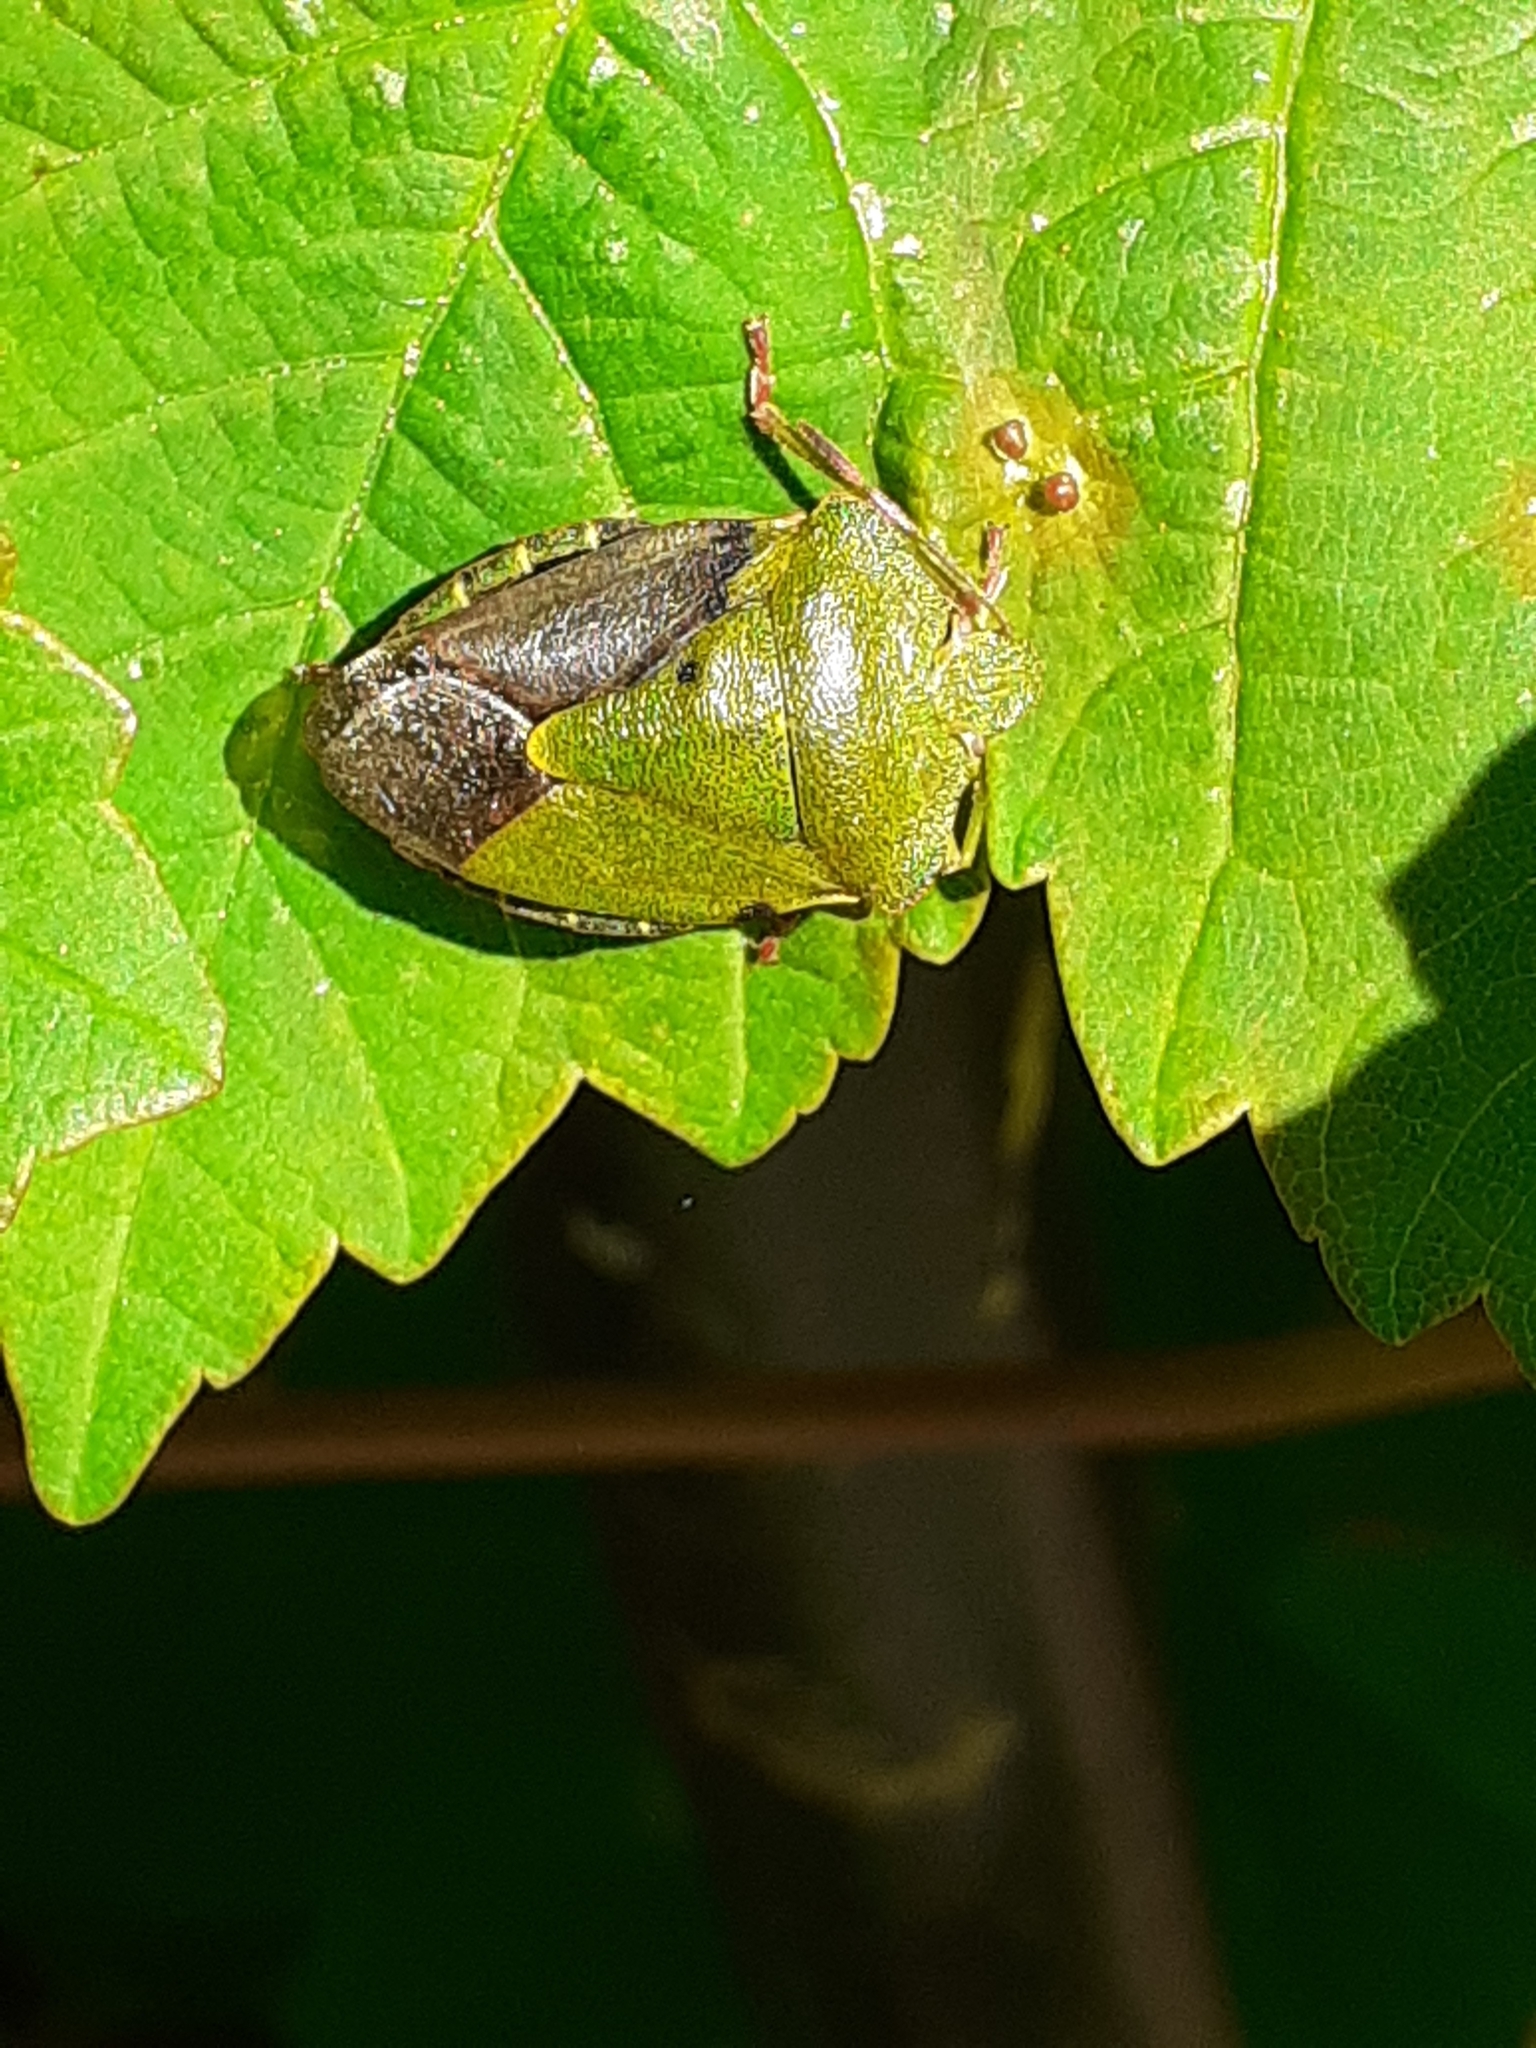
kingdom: Animalia
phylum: Arthropoda
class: Insecta
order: Hemiptera
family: Pentatomidae
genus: Palomena
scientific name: Palomena prasina
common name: Green shieldbug
